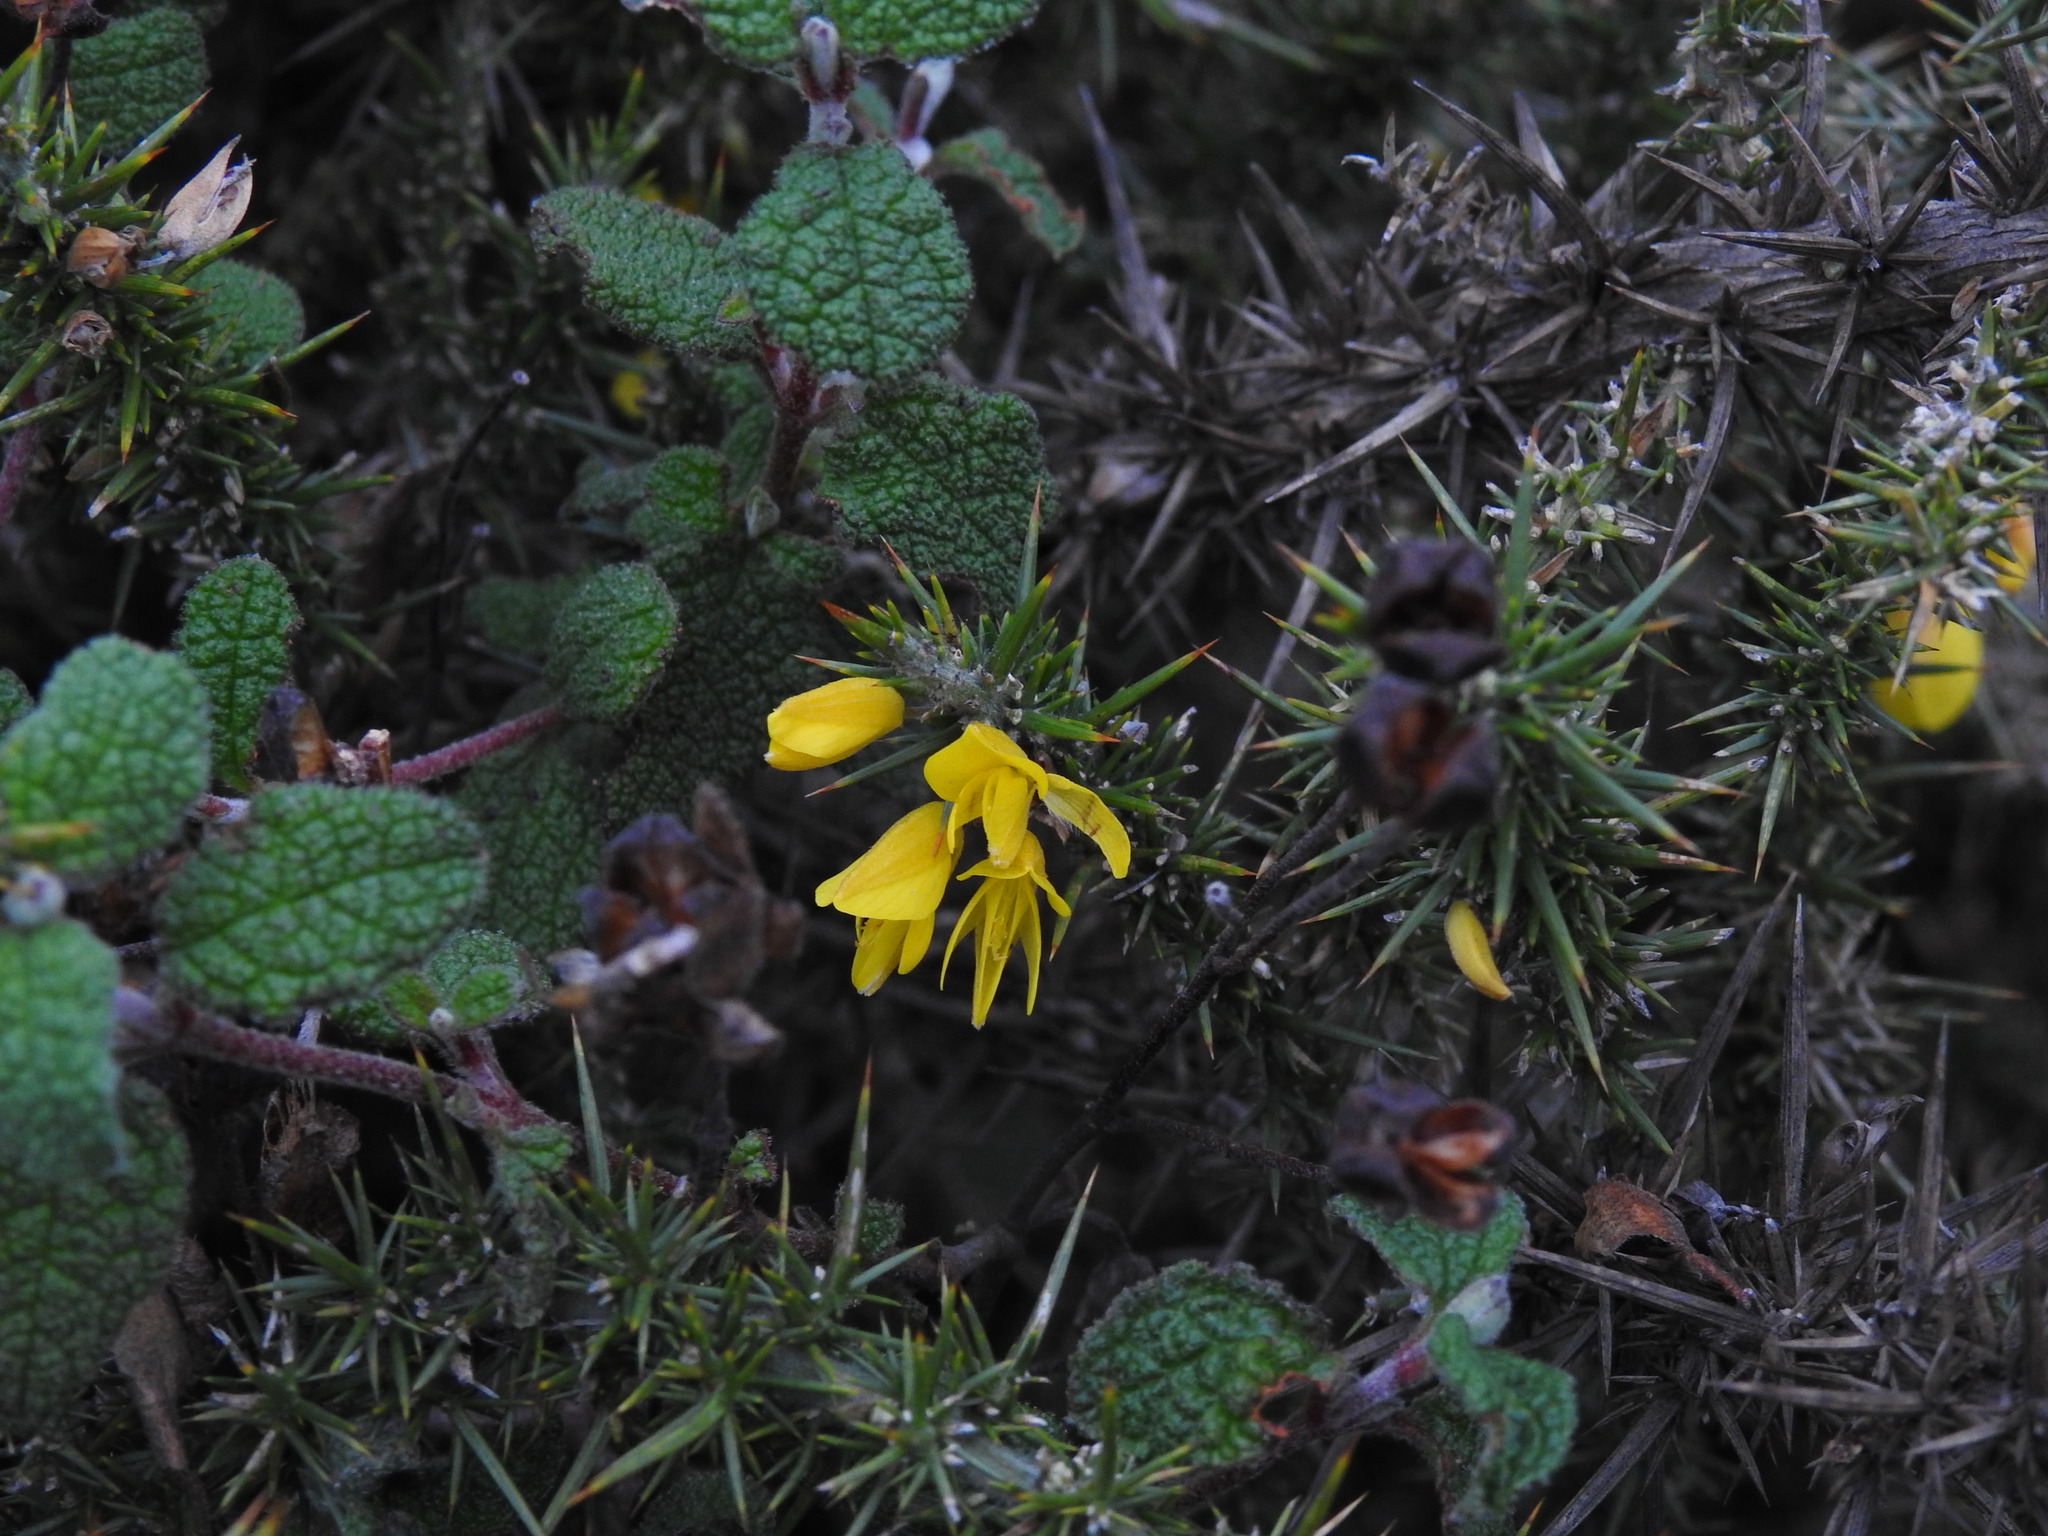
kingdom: Plantae
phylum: Tracheophyta
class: Magnoliopsida
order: Fabales
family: Fabaceae
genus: Ulex
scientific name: Ulex minor
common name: Dwarf gorse
